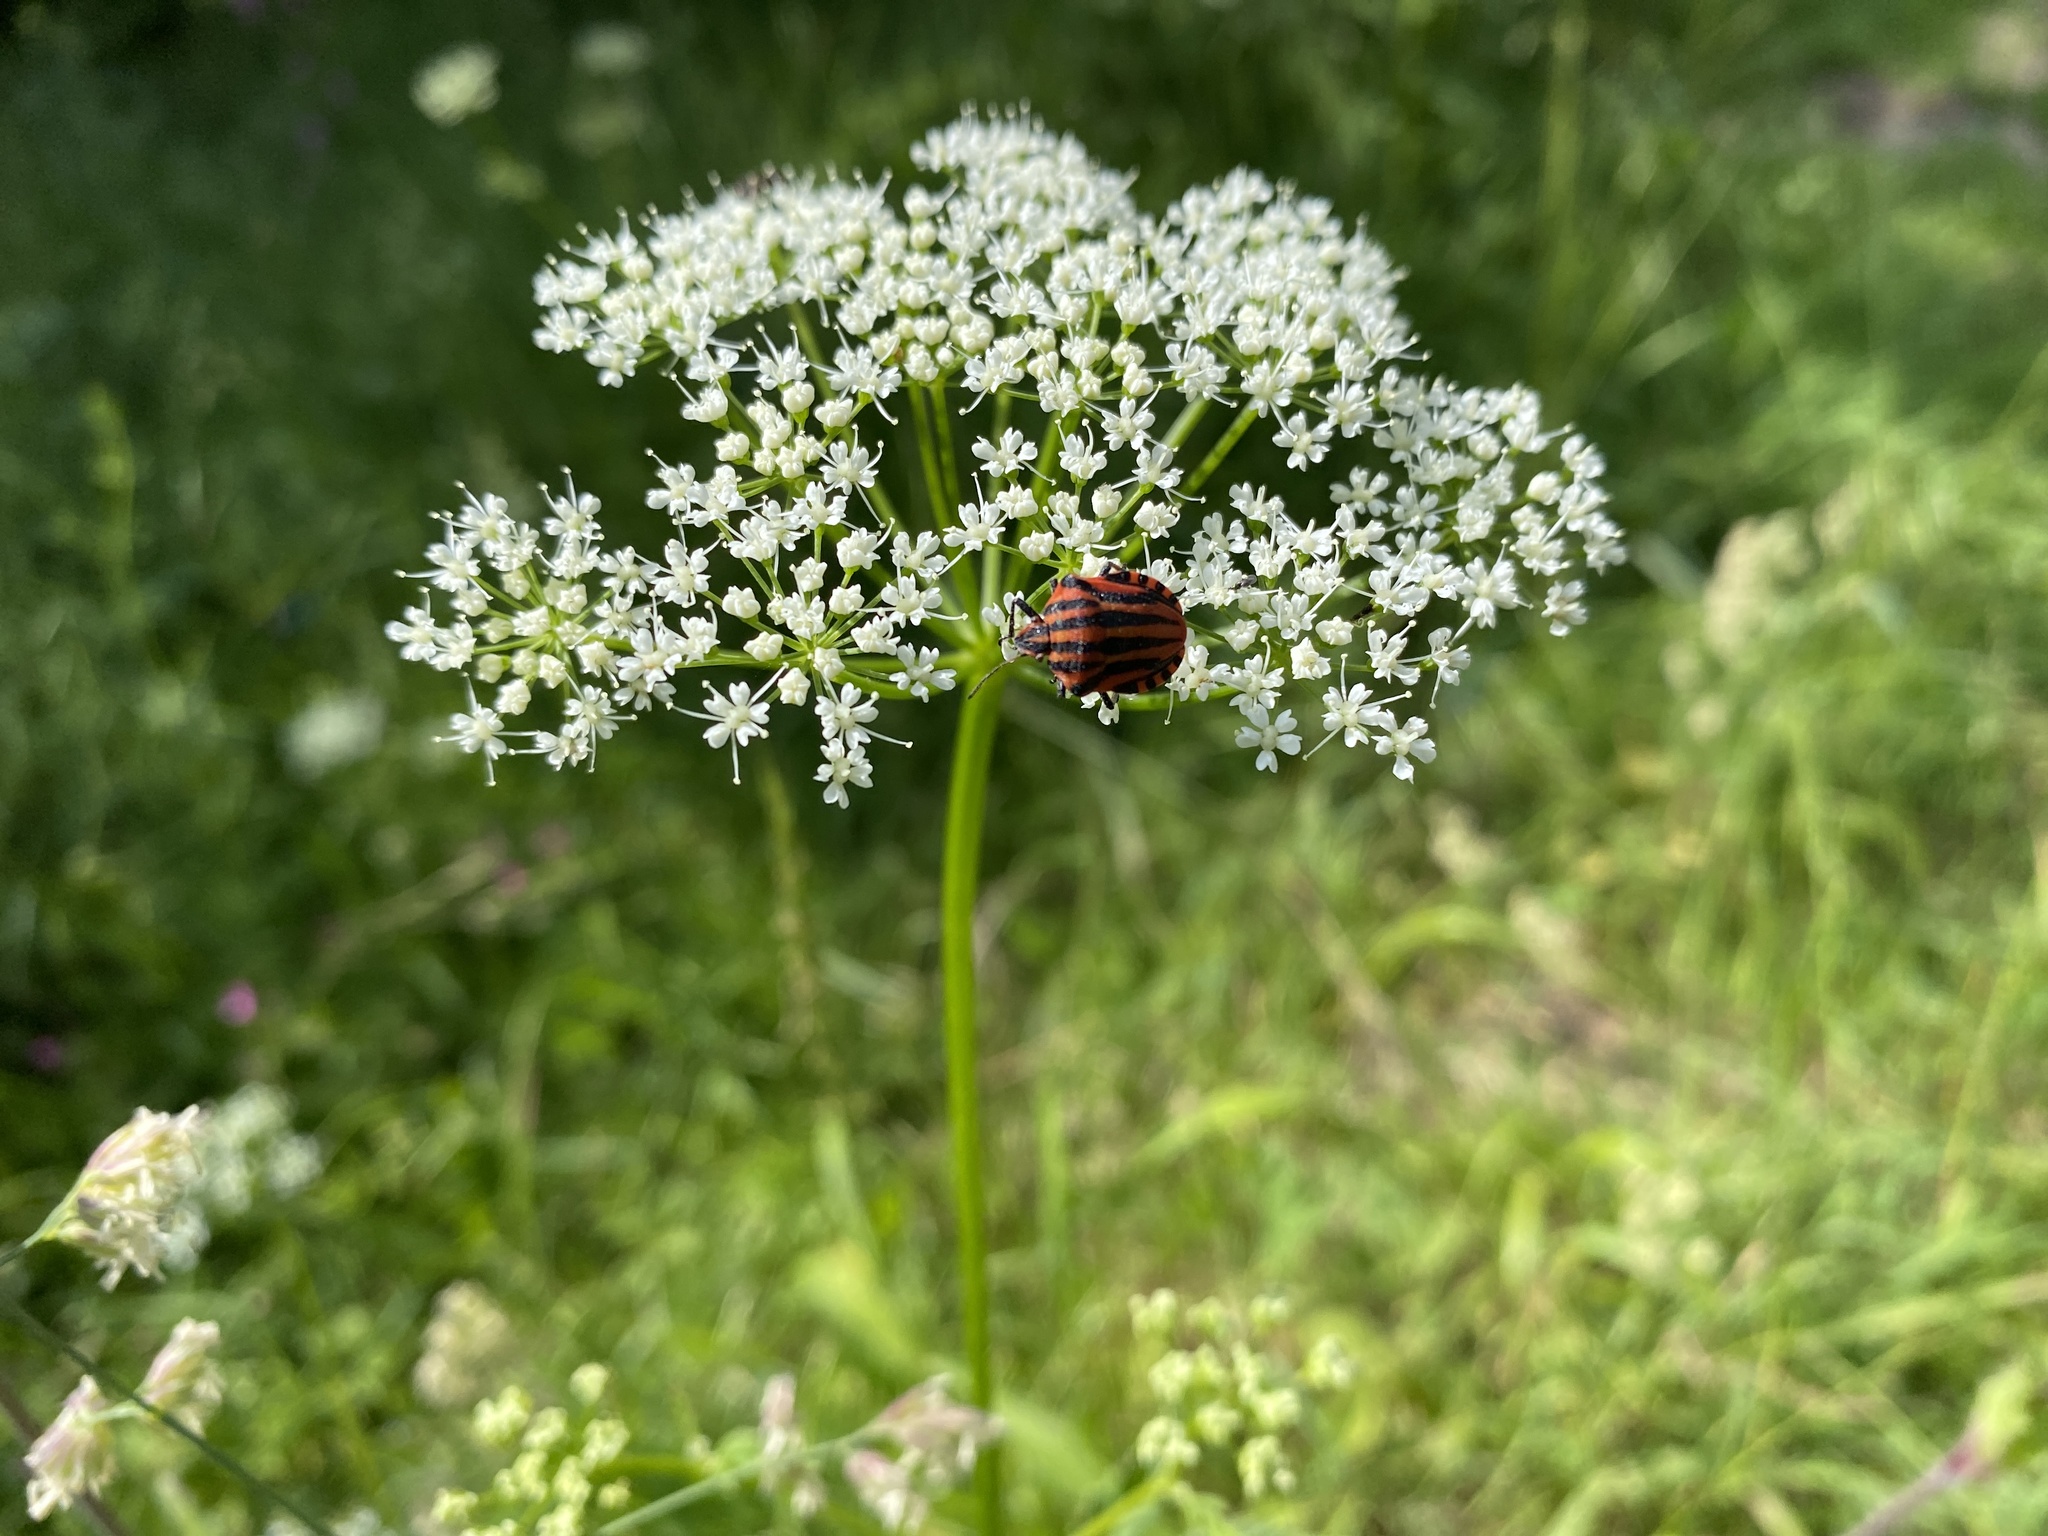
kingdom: Animalia
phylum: Arthropoda
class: Insecta
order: Hemiptera
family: Pentatomidae
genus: Graphosoma
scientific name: Graphosoma italicum
